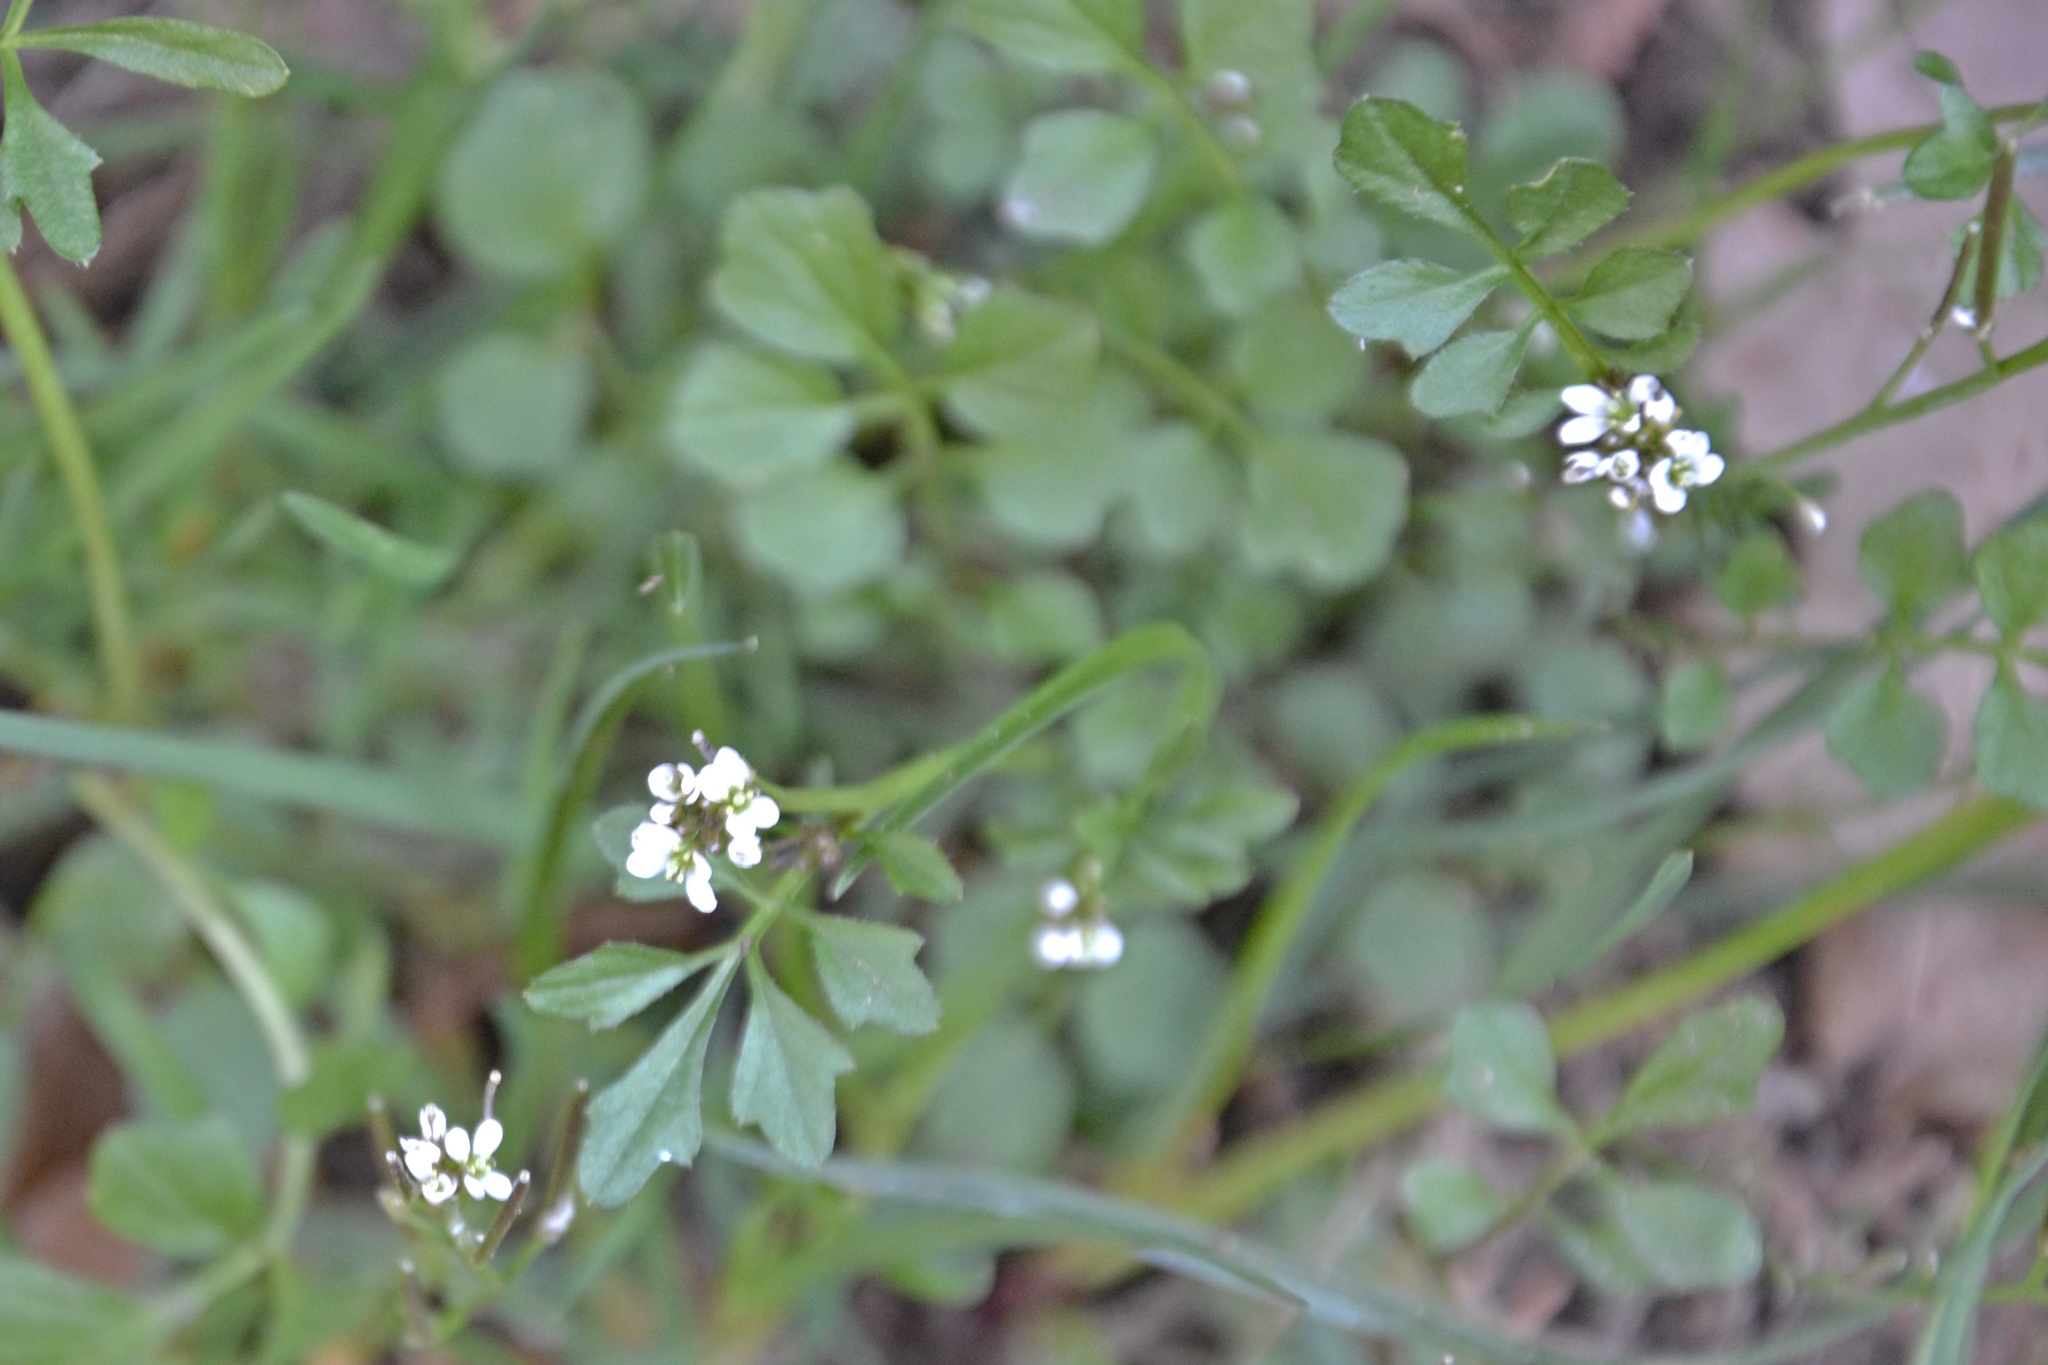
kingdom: Plantae
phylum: Tracheophyta
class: Magnoliopsida
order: Brassicales
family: Brassicaceae
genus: Cardamine
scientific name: Cardamine hirsuta
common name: Hairy bittercress
